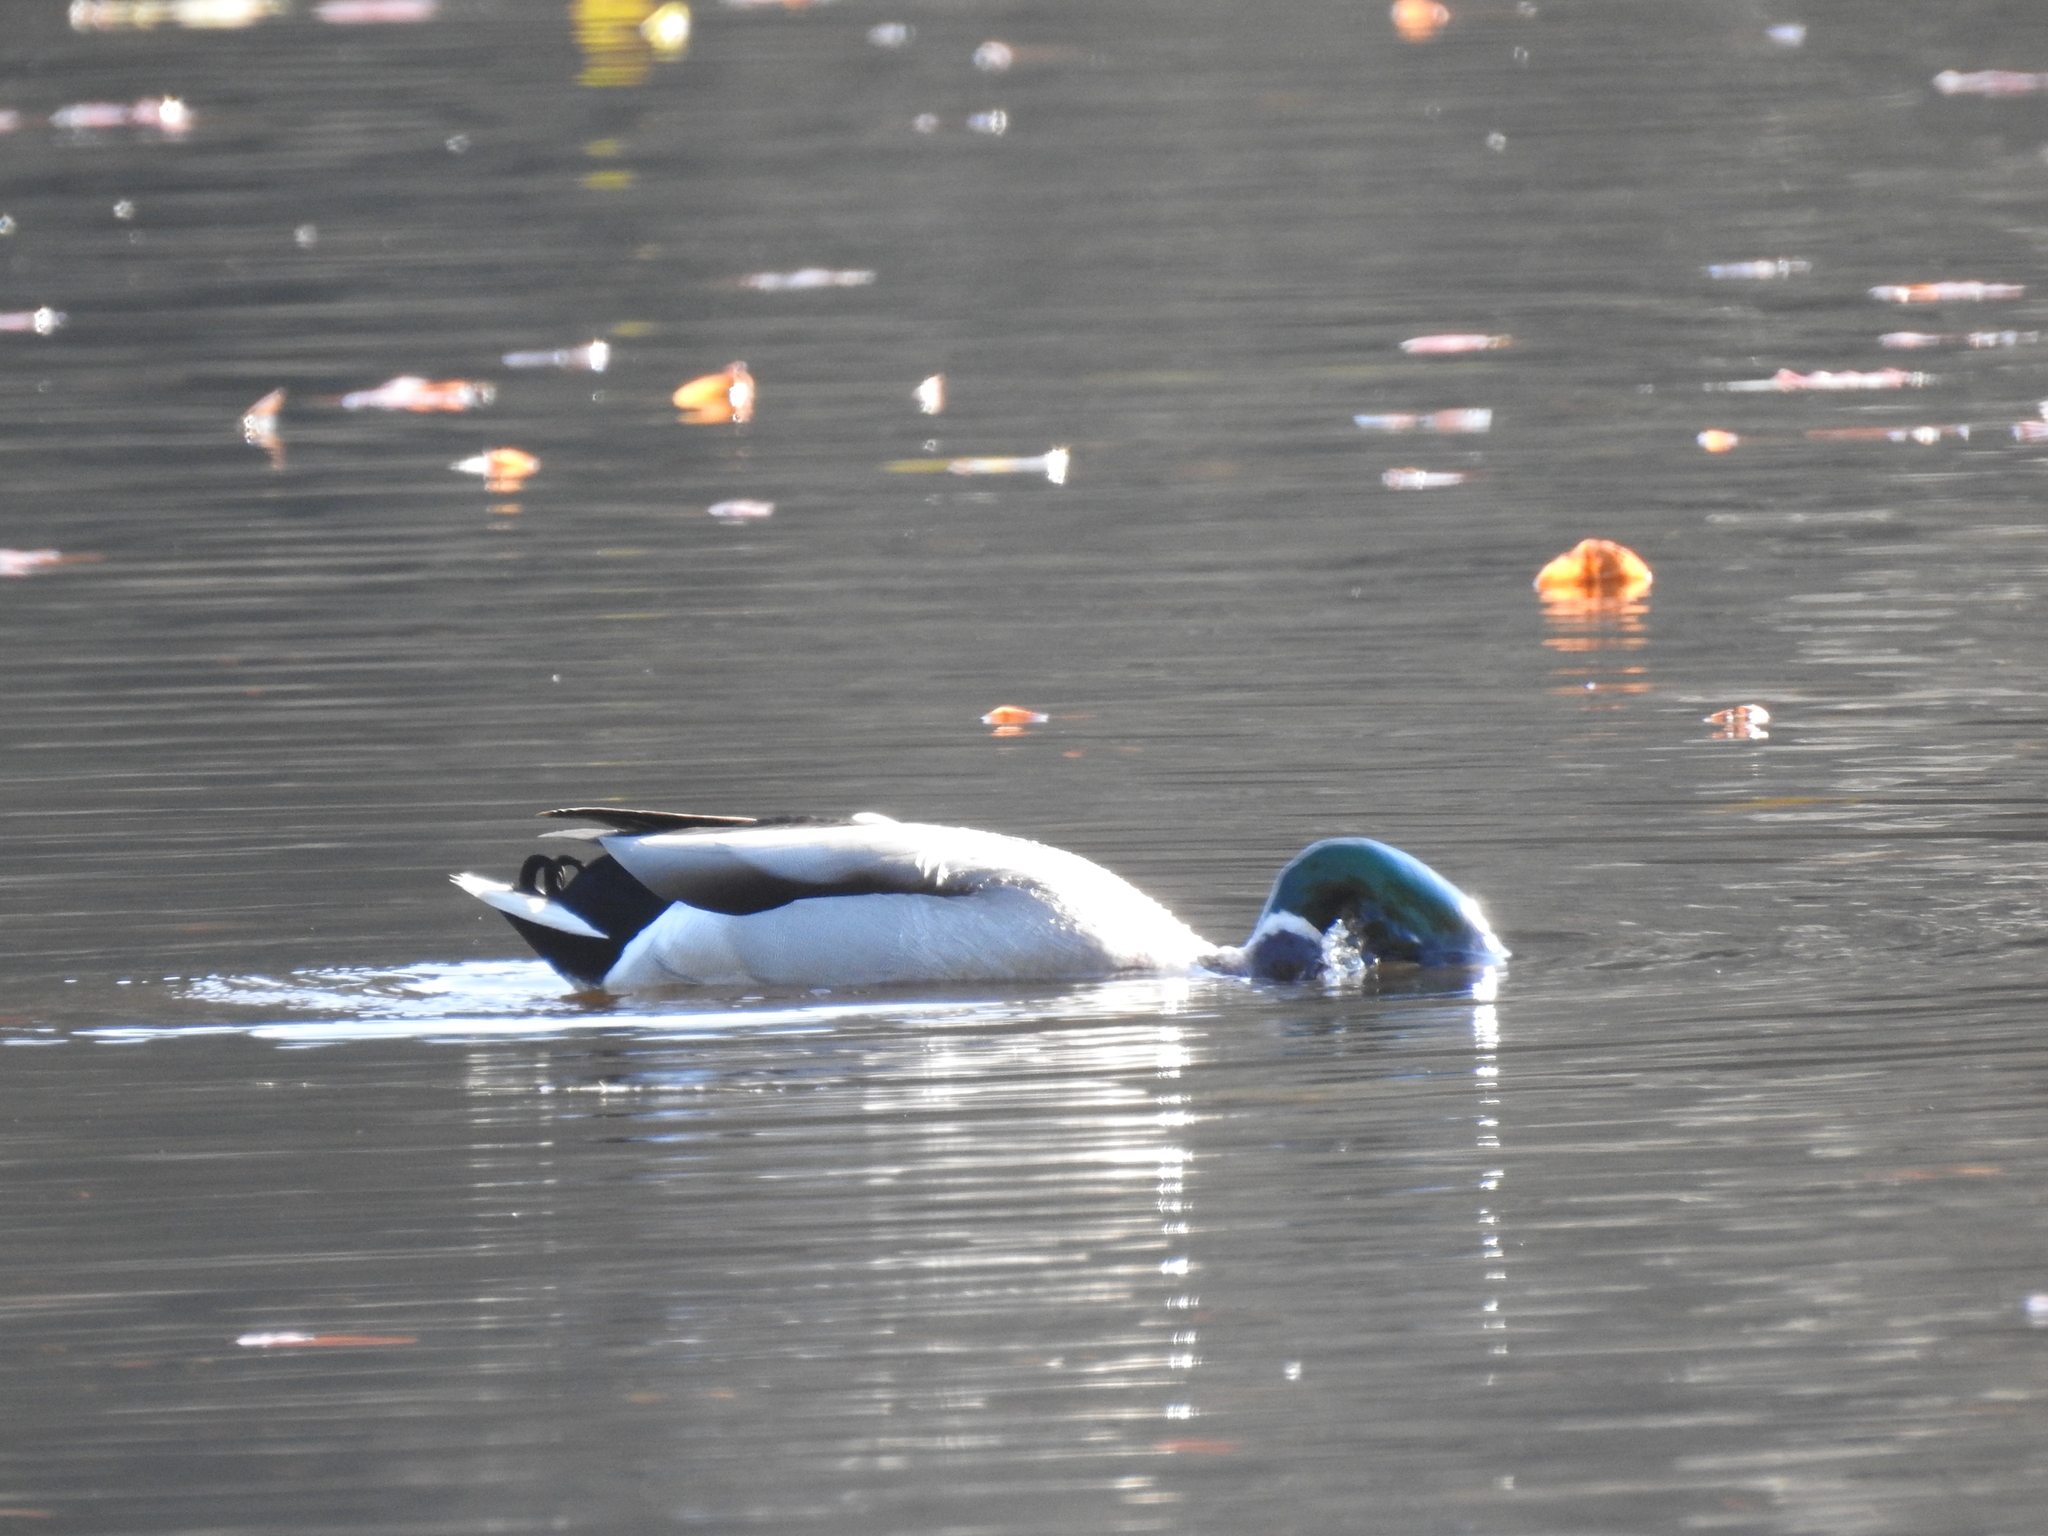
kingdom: Animalia
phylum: Chordata
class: Aves
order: Anseriformes
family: Anatidae
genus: Anas
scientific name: Anas platyrhynchos
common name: Mallard
